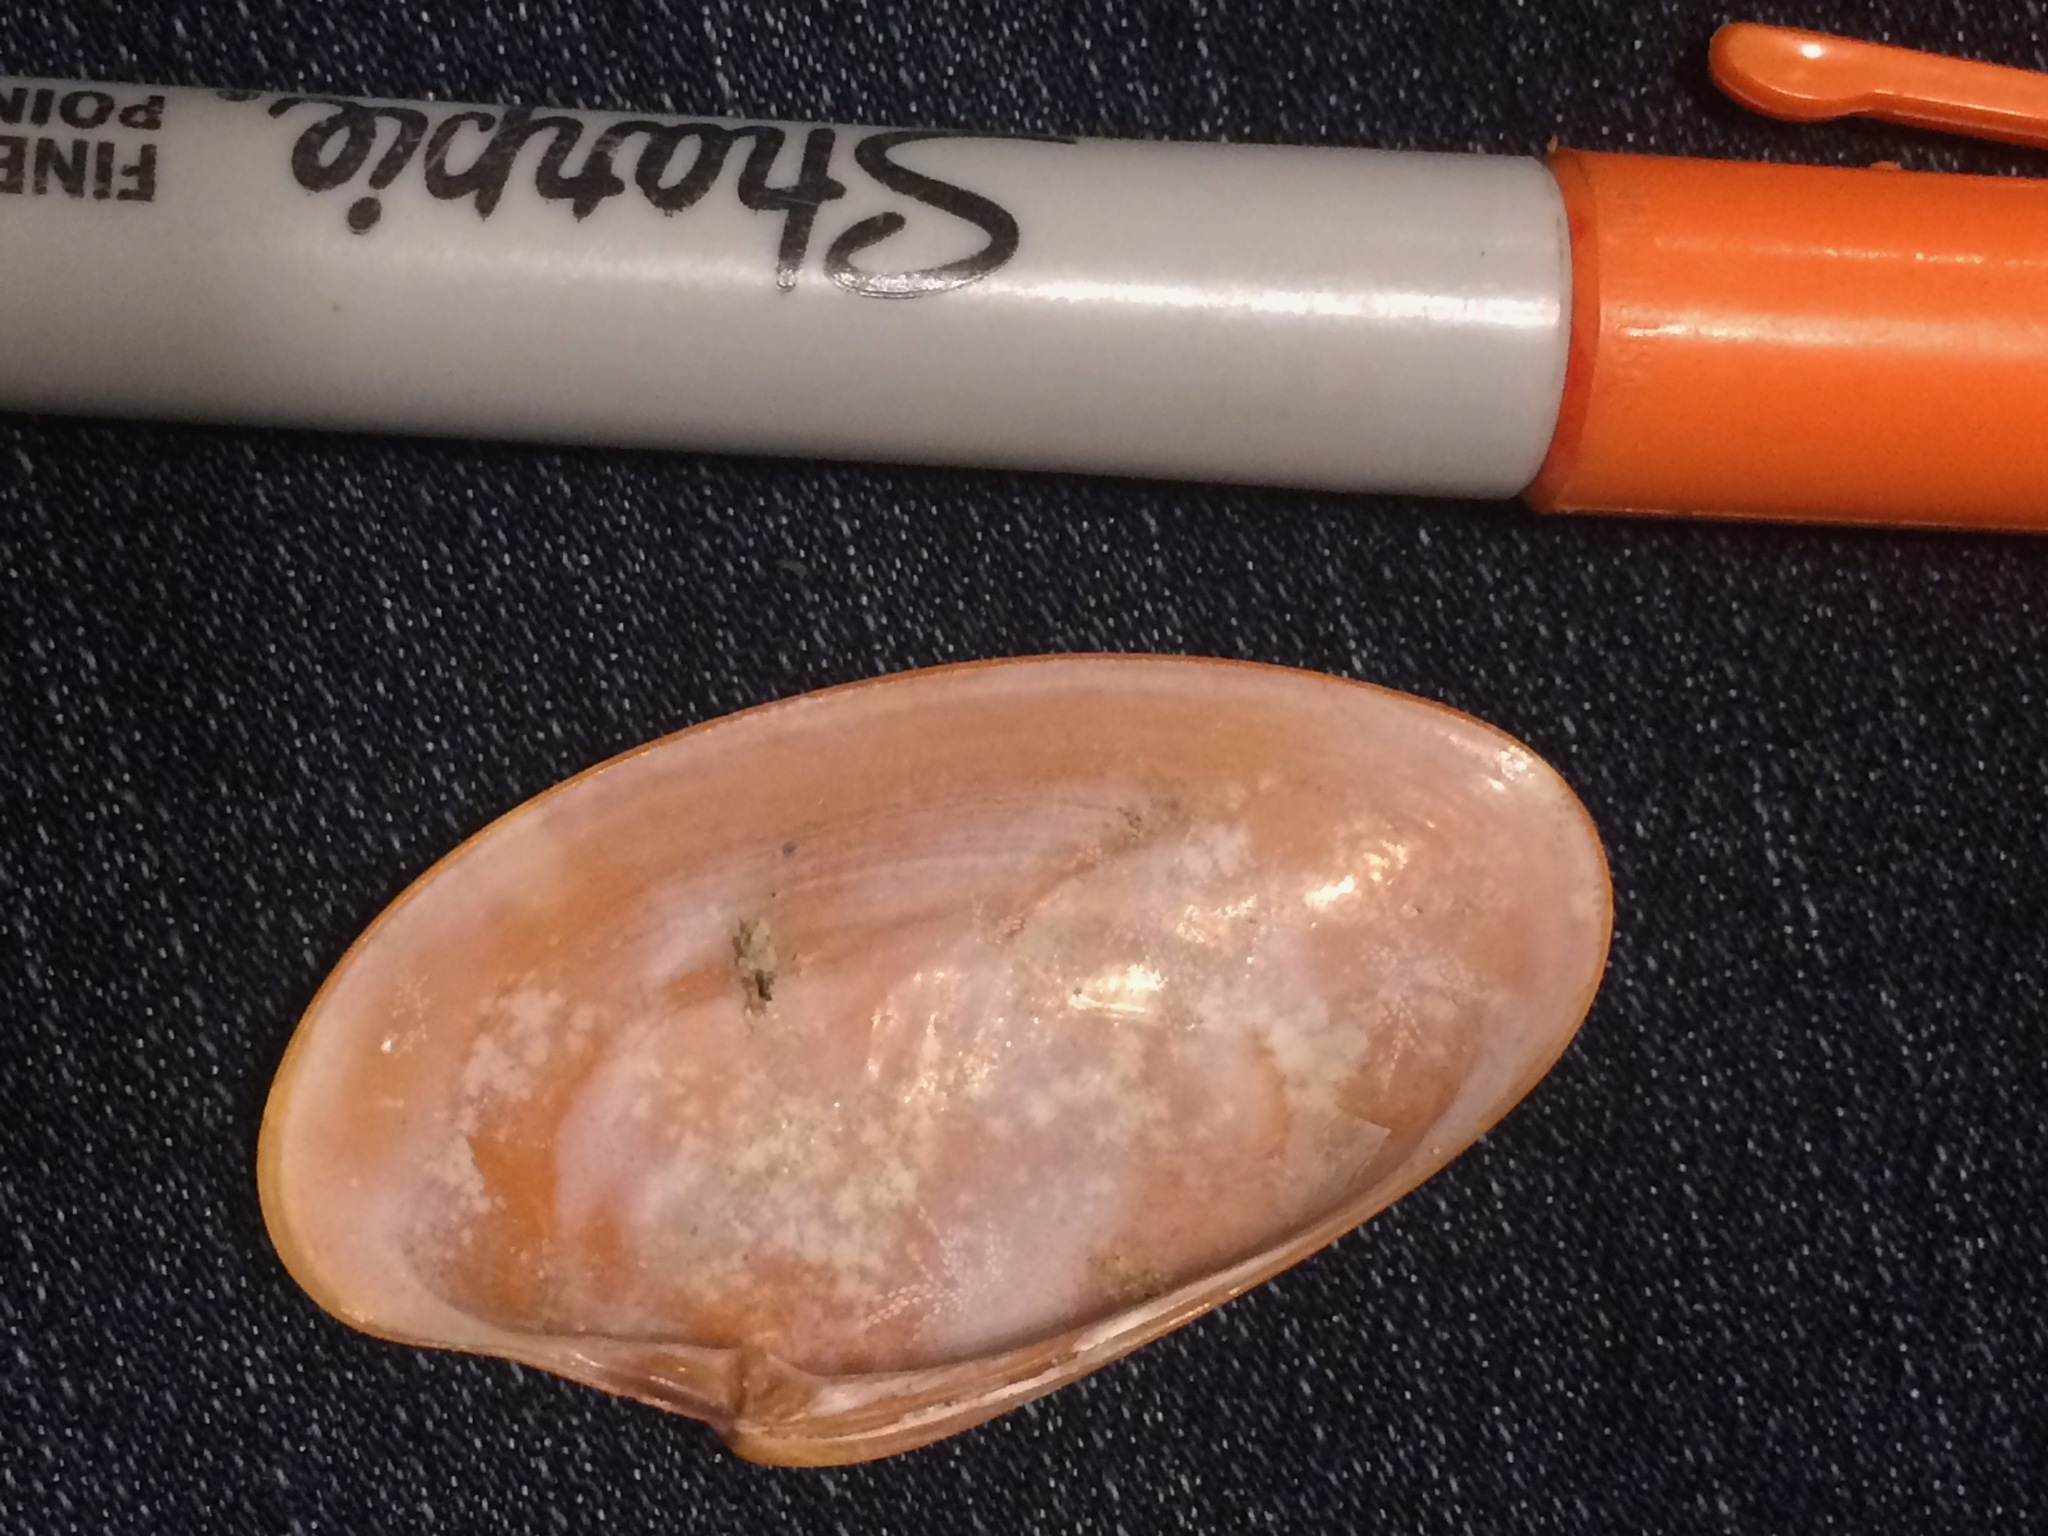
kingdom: Animalia
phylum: Mollusca
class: Bivalvia
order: Venerida
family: Veneridae
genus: Macrocallista
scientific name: Macrocallista nimbosa
